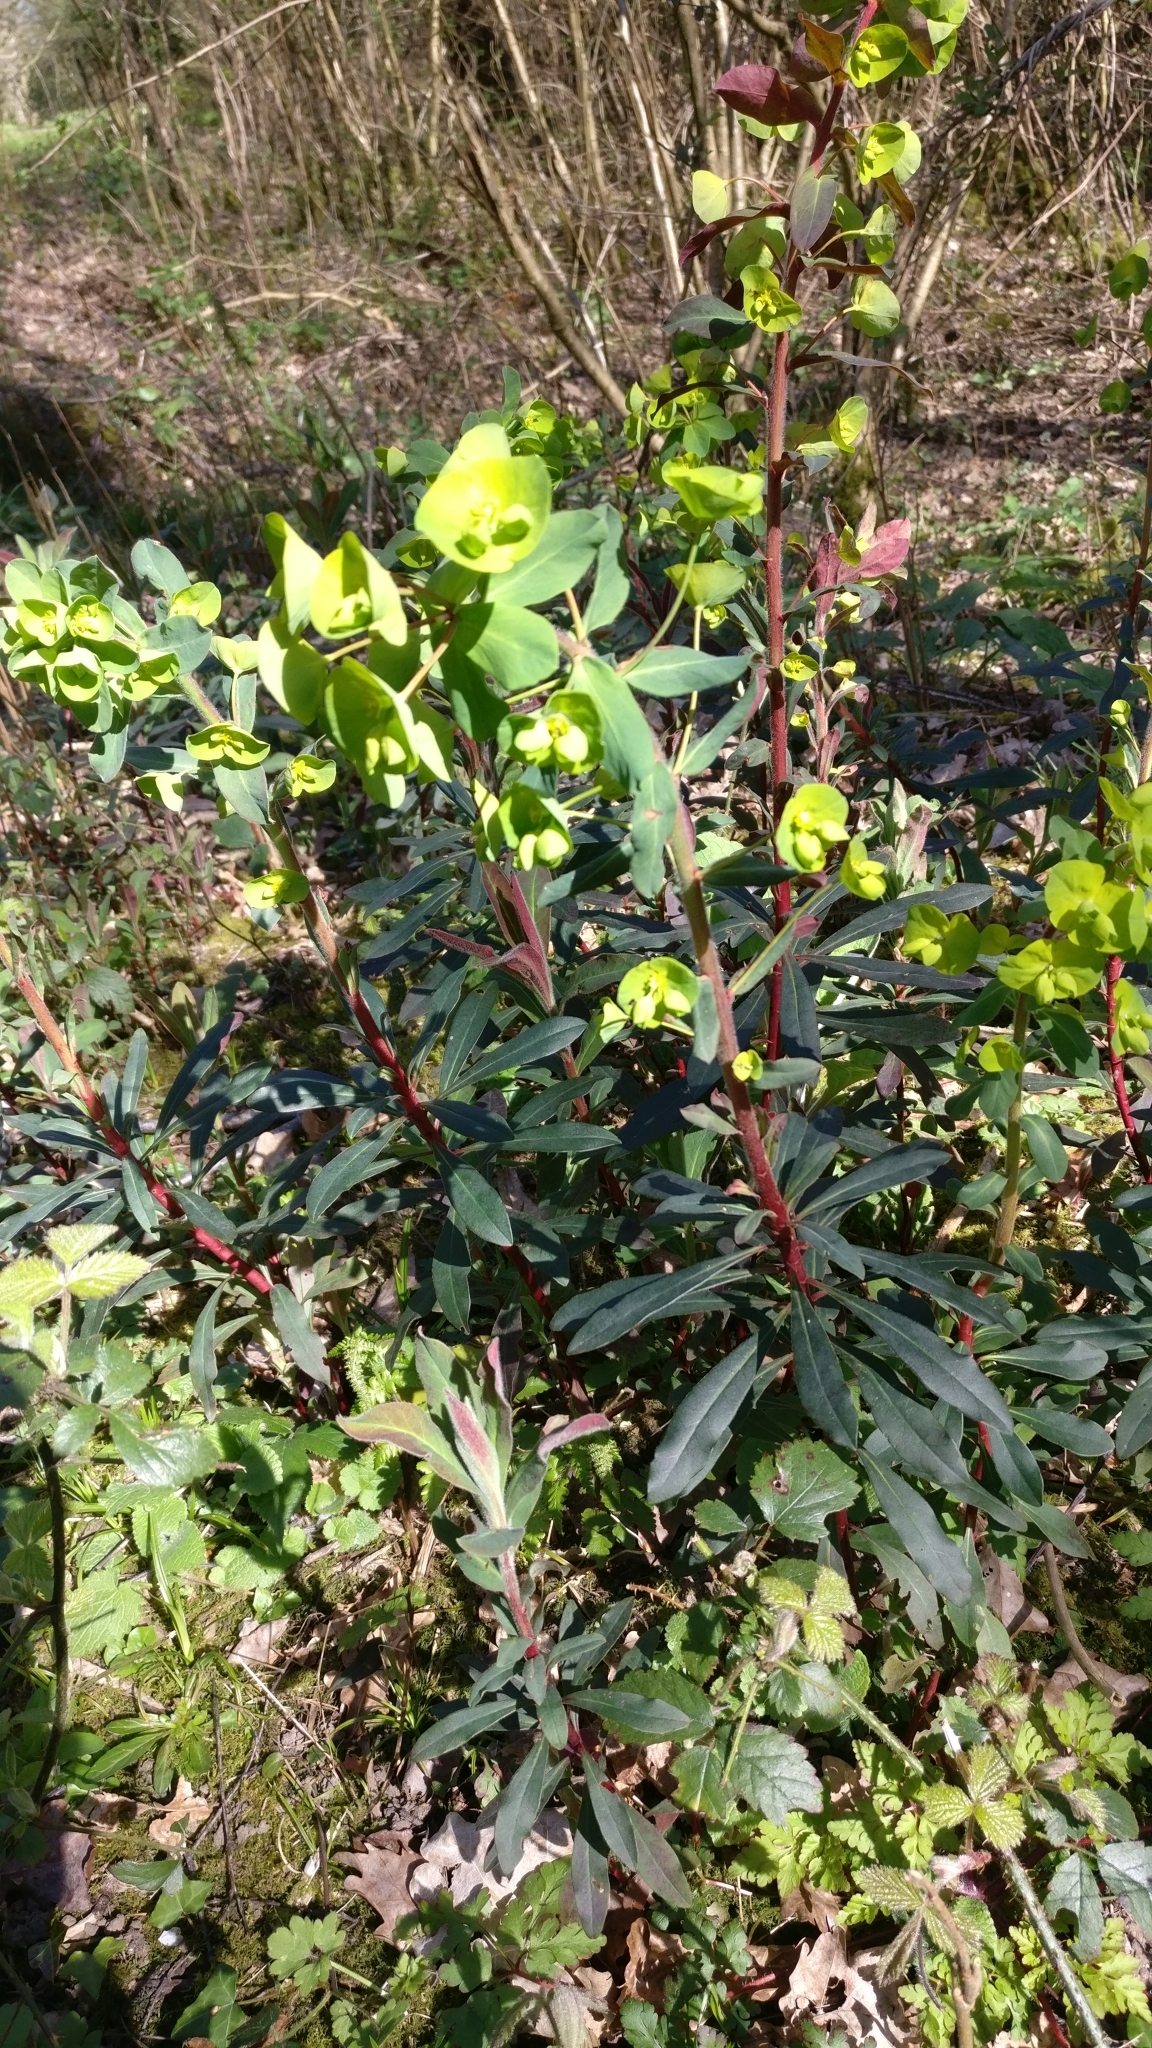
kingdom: Plantae
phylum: Tracheophyta
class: Magnoliopsida
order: Malpighiales
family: Euphorbiaceae
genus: Euphorbia
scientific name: Euphorbia amygdaloides
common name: Wood spurge
